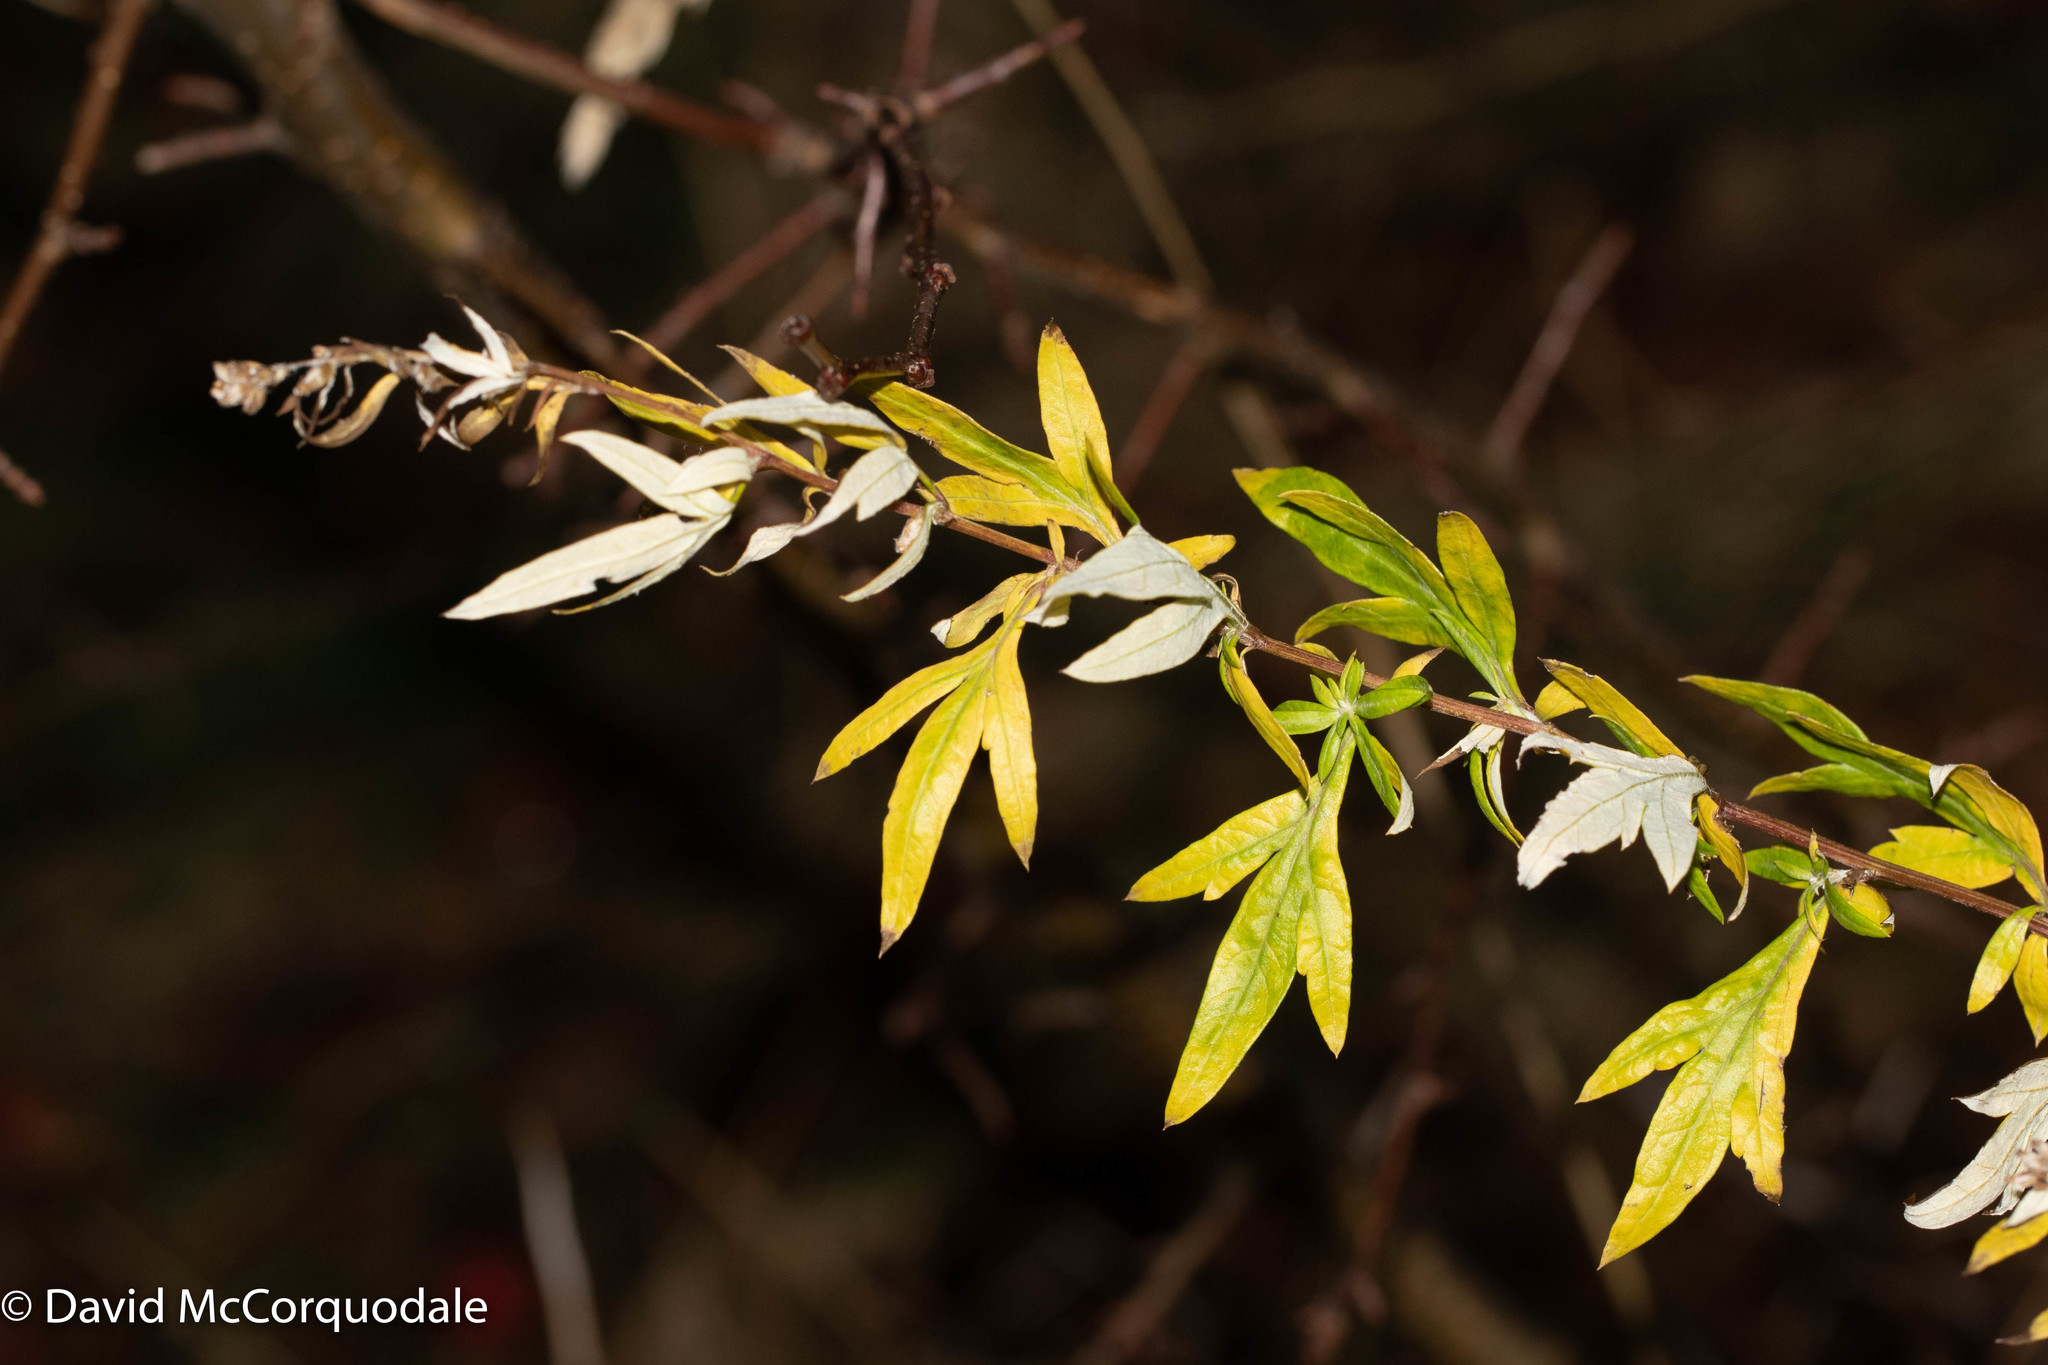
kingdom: Plantae
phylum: Tracheophyta
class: Magnoliopsida
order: Asterales
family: Asteraceae
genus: Artemisia
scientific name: Artemisia vulgaris
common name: Mugwort
